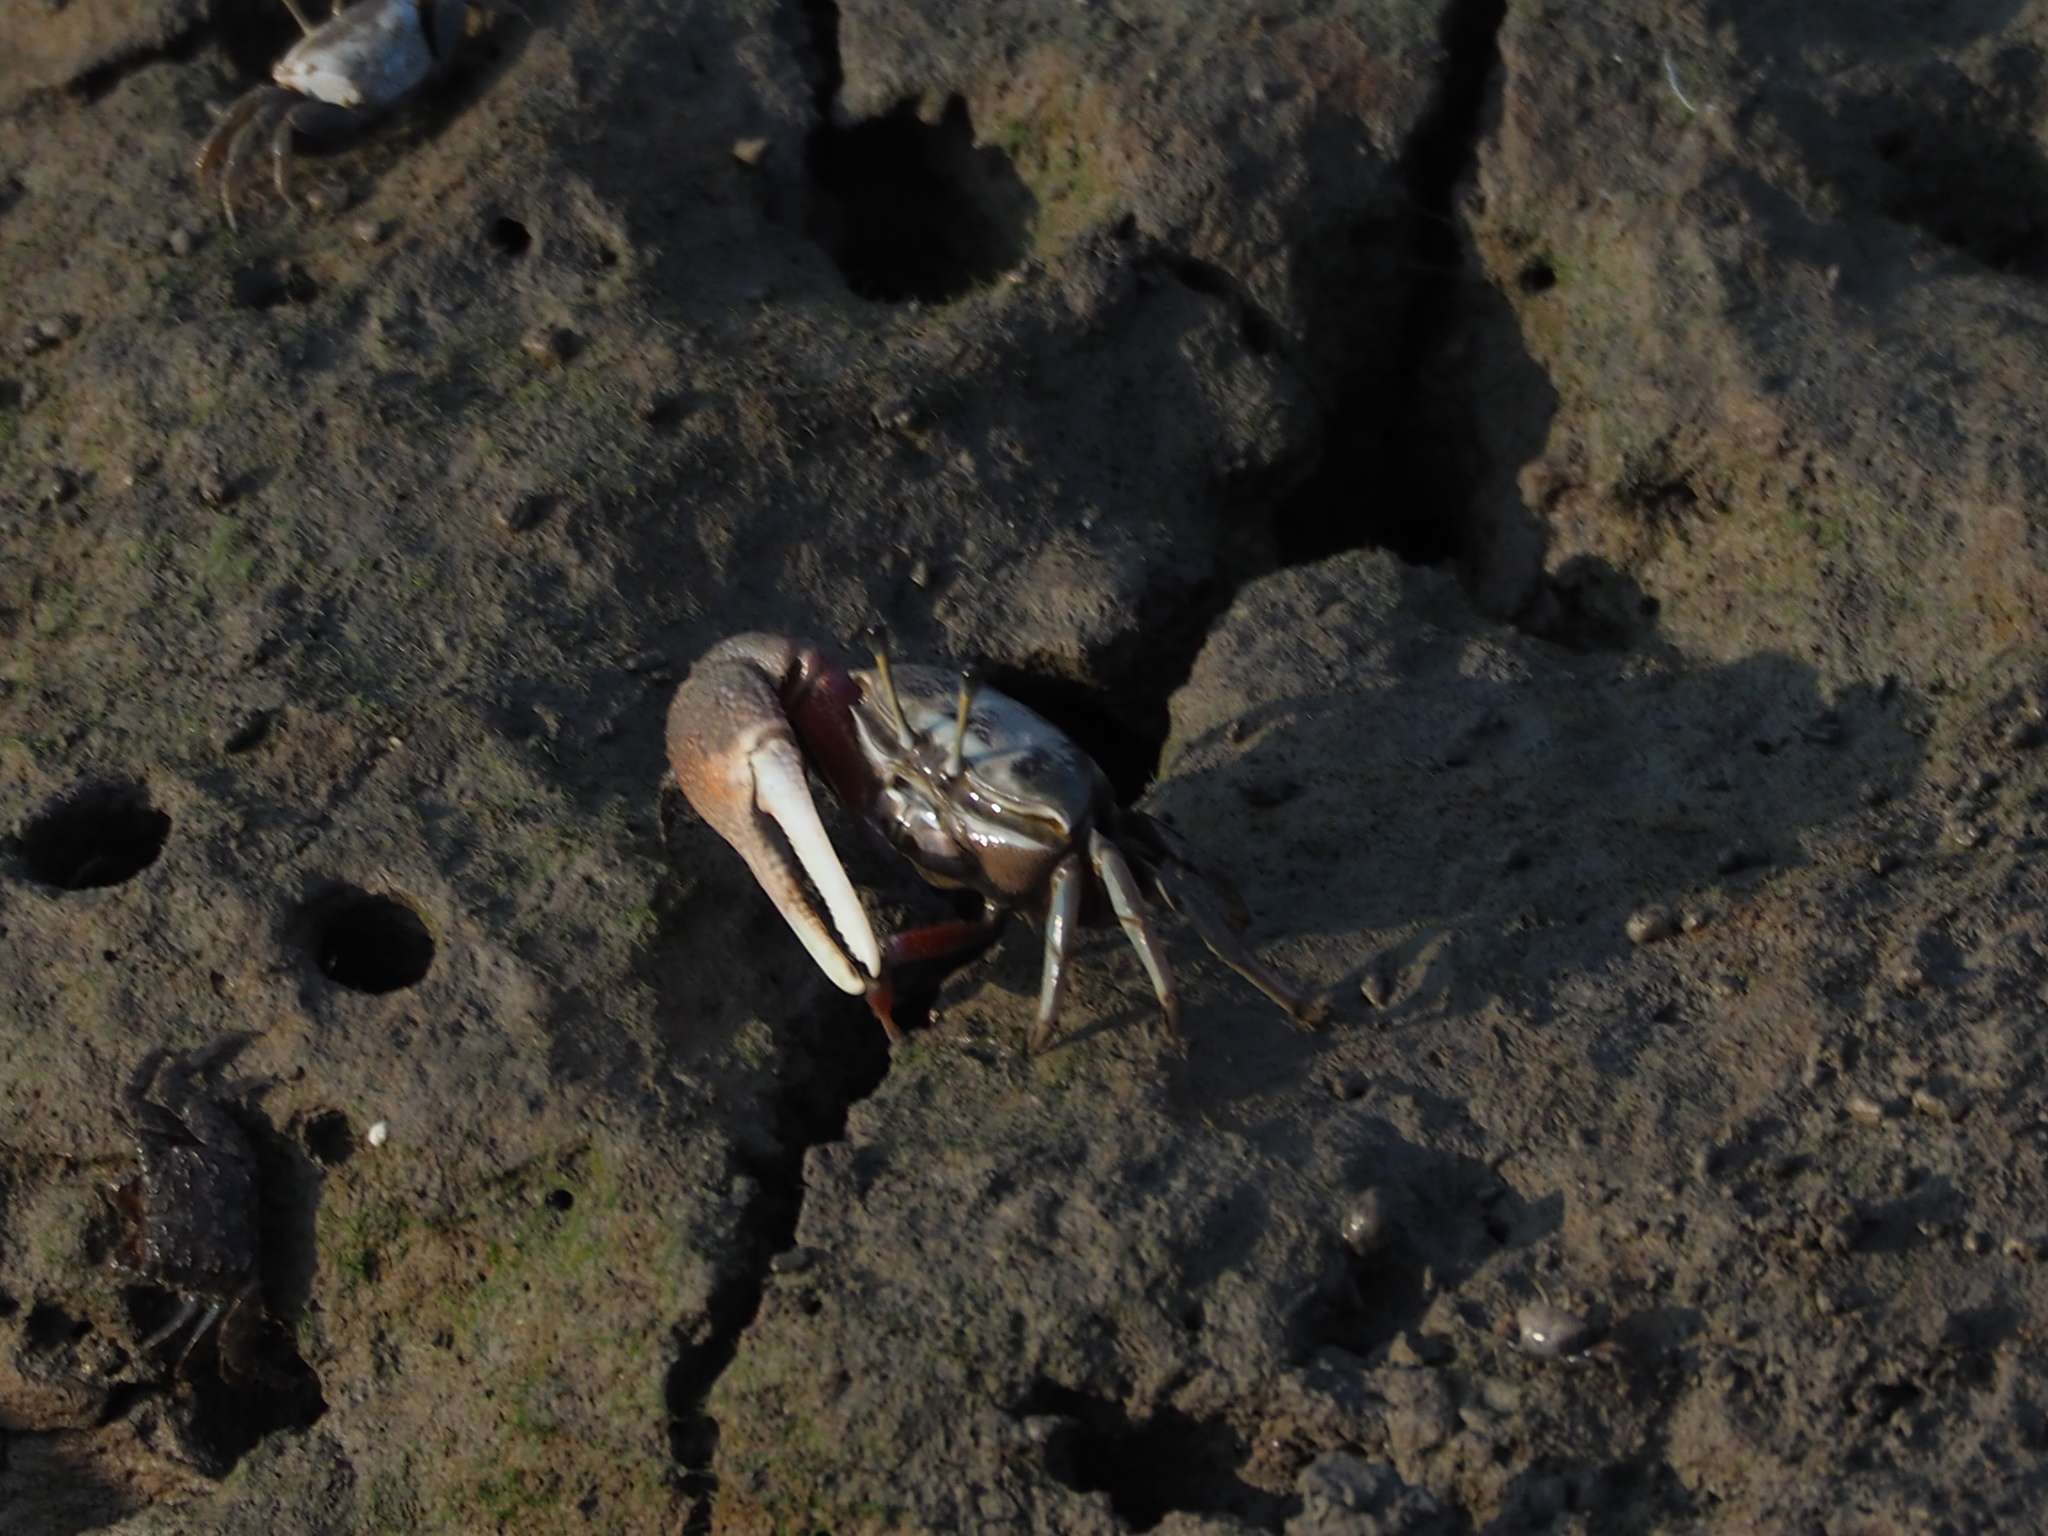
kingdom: Animalia
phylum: Arthropoda
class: Malacostraca
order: Decapoda
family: Ocypodidae
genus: Tubuca
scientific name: Tubuca arcuata
